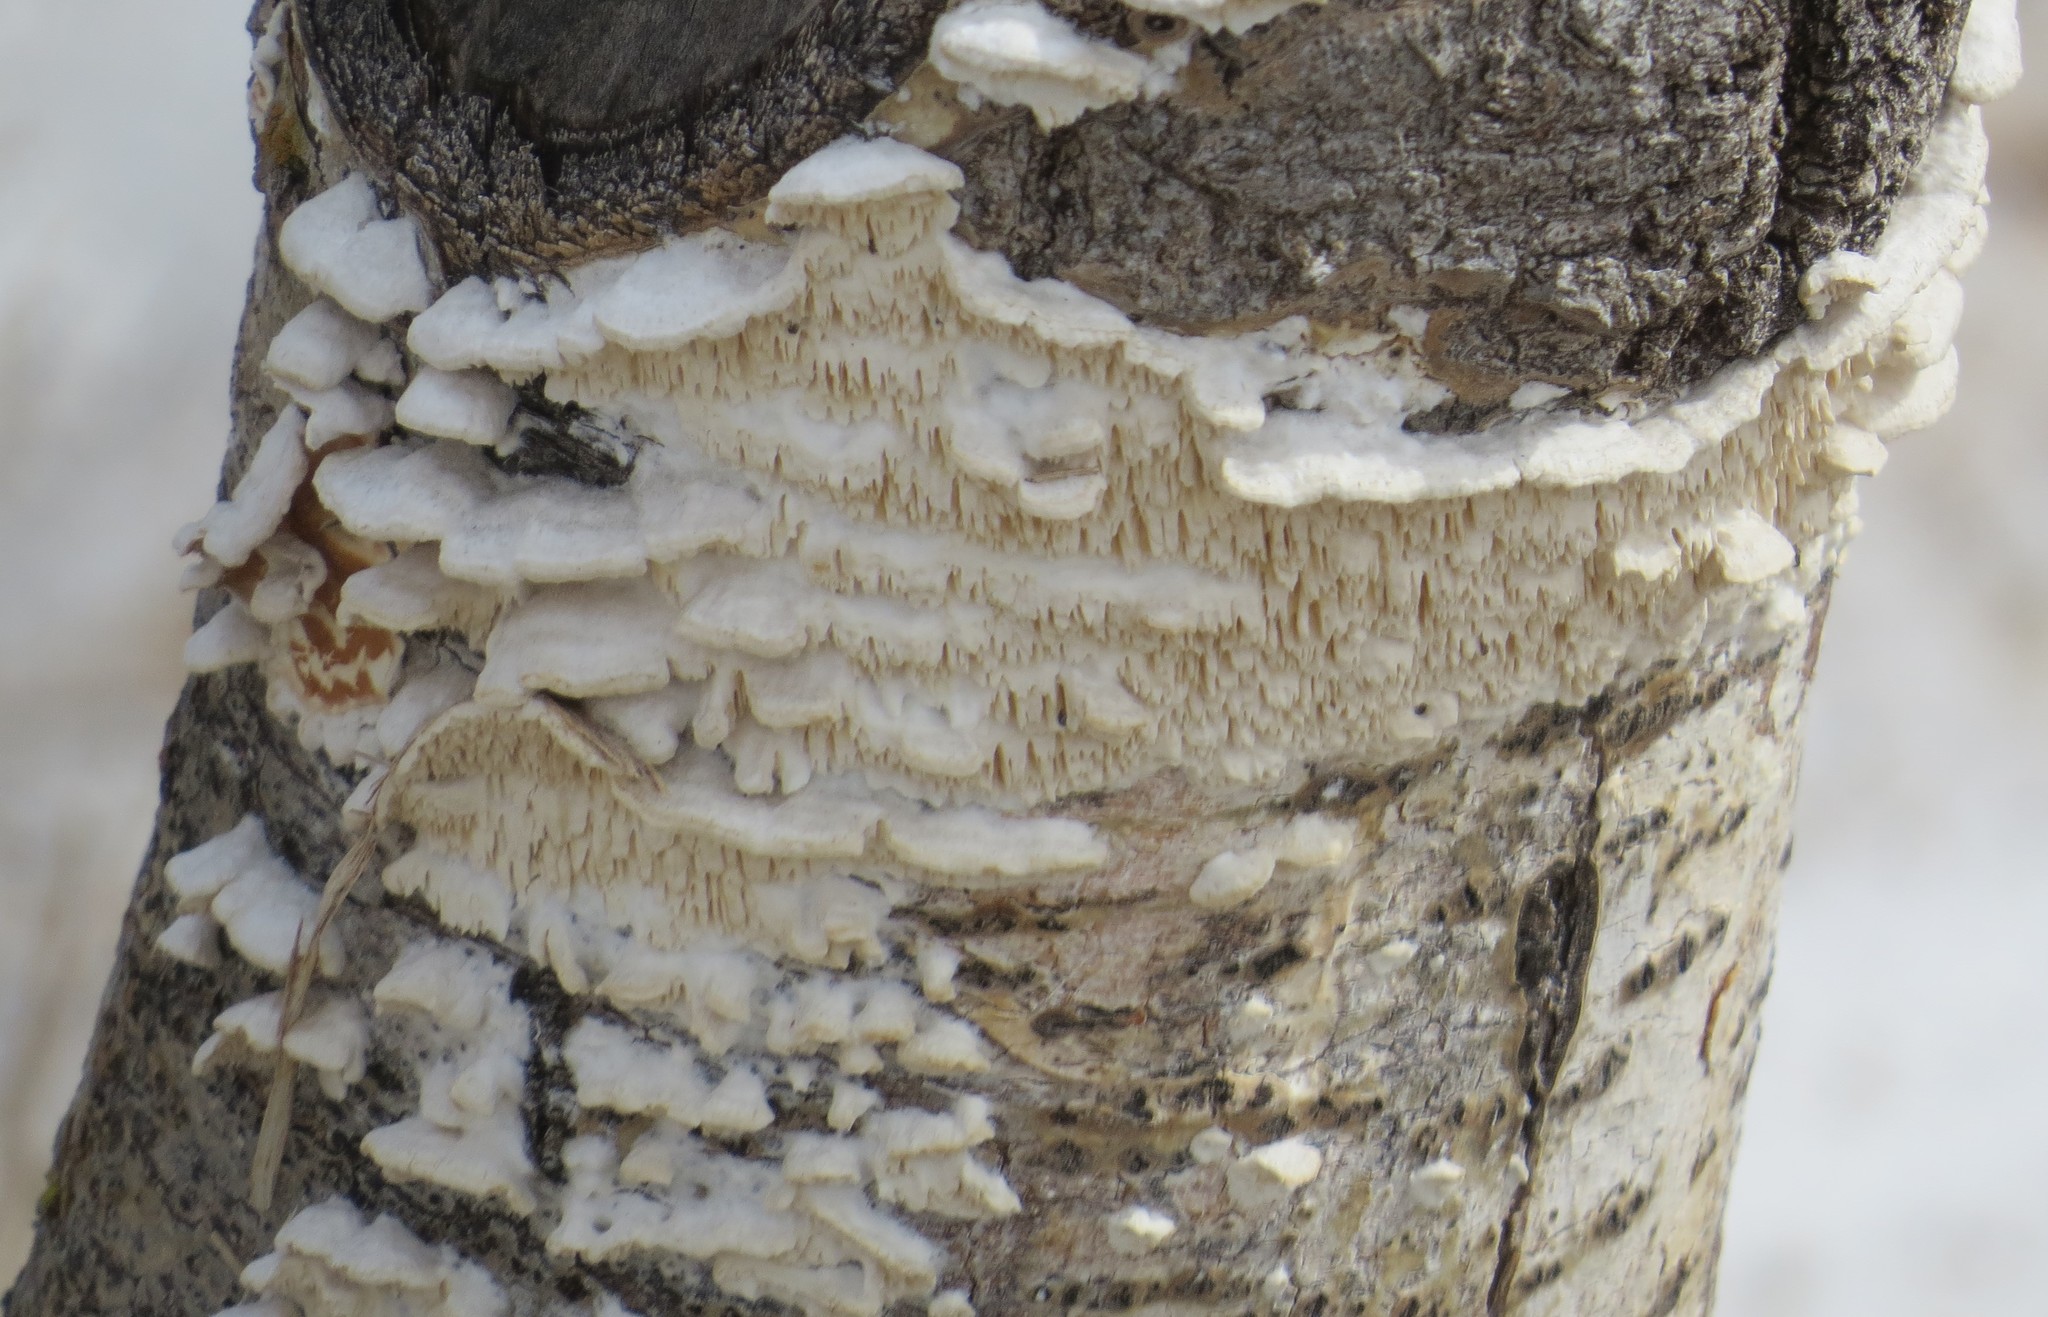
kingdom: Fungi
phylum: Basidiomycota
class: Agaricomycetes
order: Polyporales
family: Irpicaceae
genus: Irpex
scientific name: Irpex lacteus
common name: Milk-white toothed polypore
